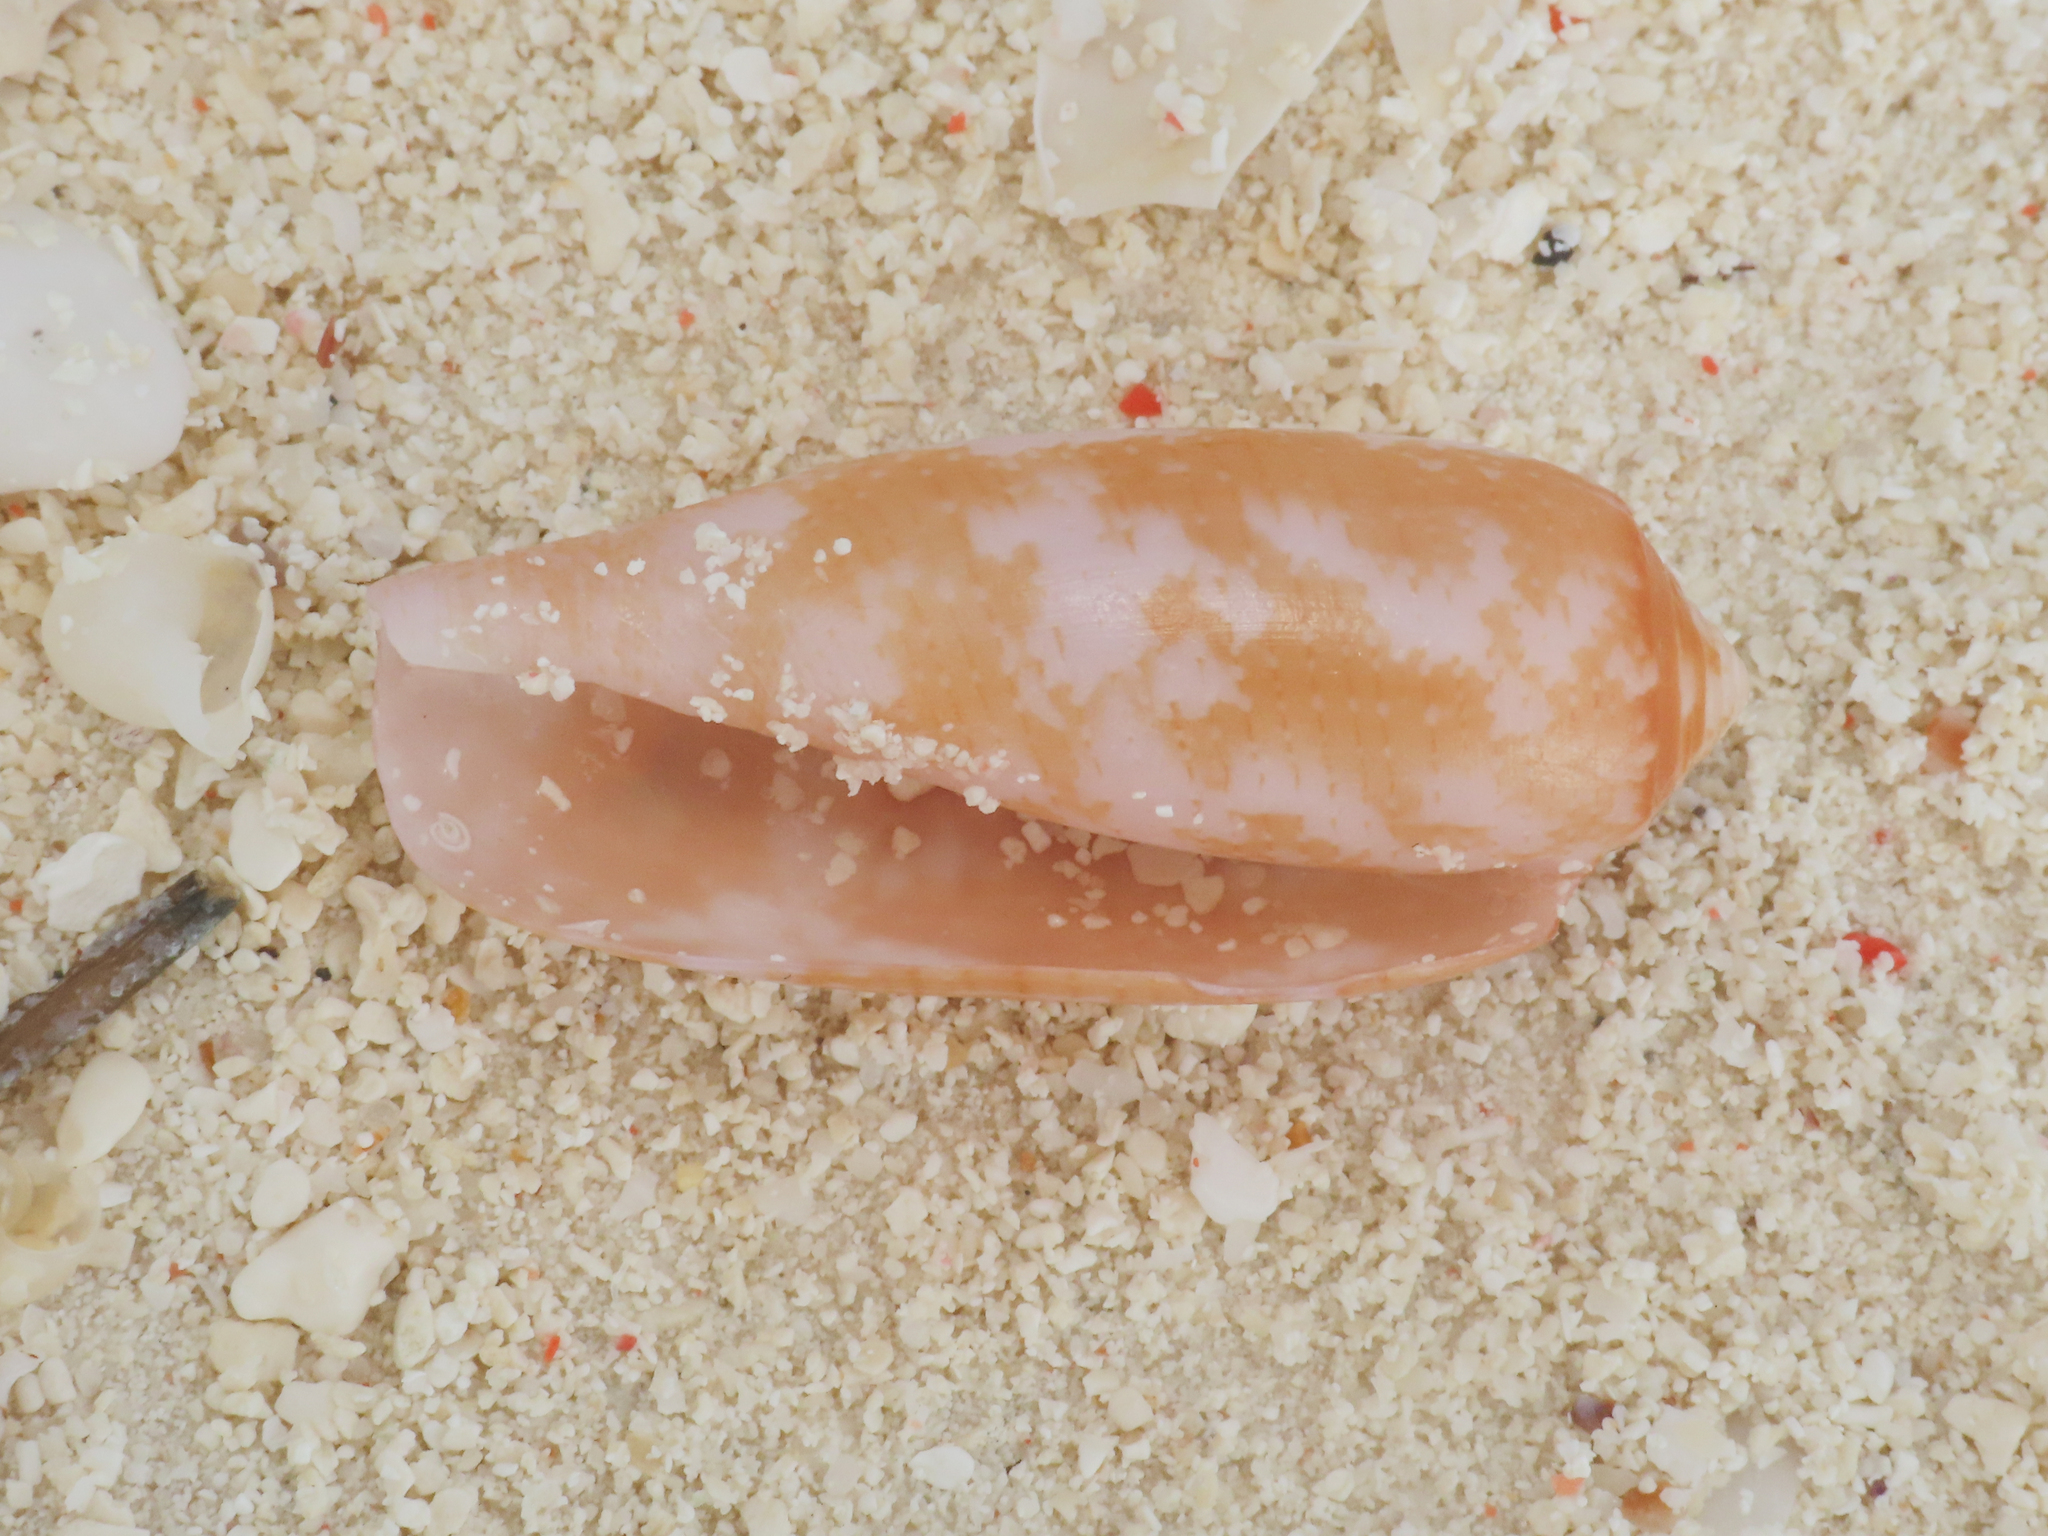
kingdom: Animalia
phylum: Mollusca
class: Gastropoda
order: Neogastropoda
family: Conidae
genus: Conus
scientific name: Conus obscurus
